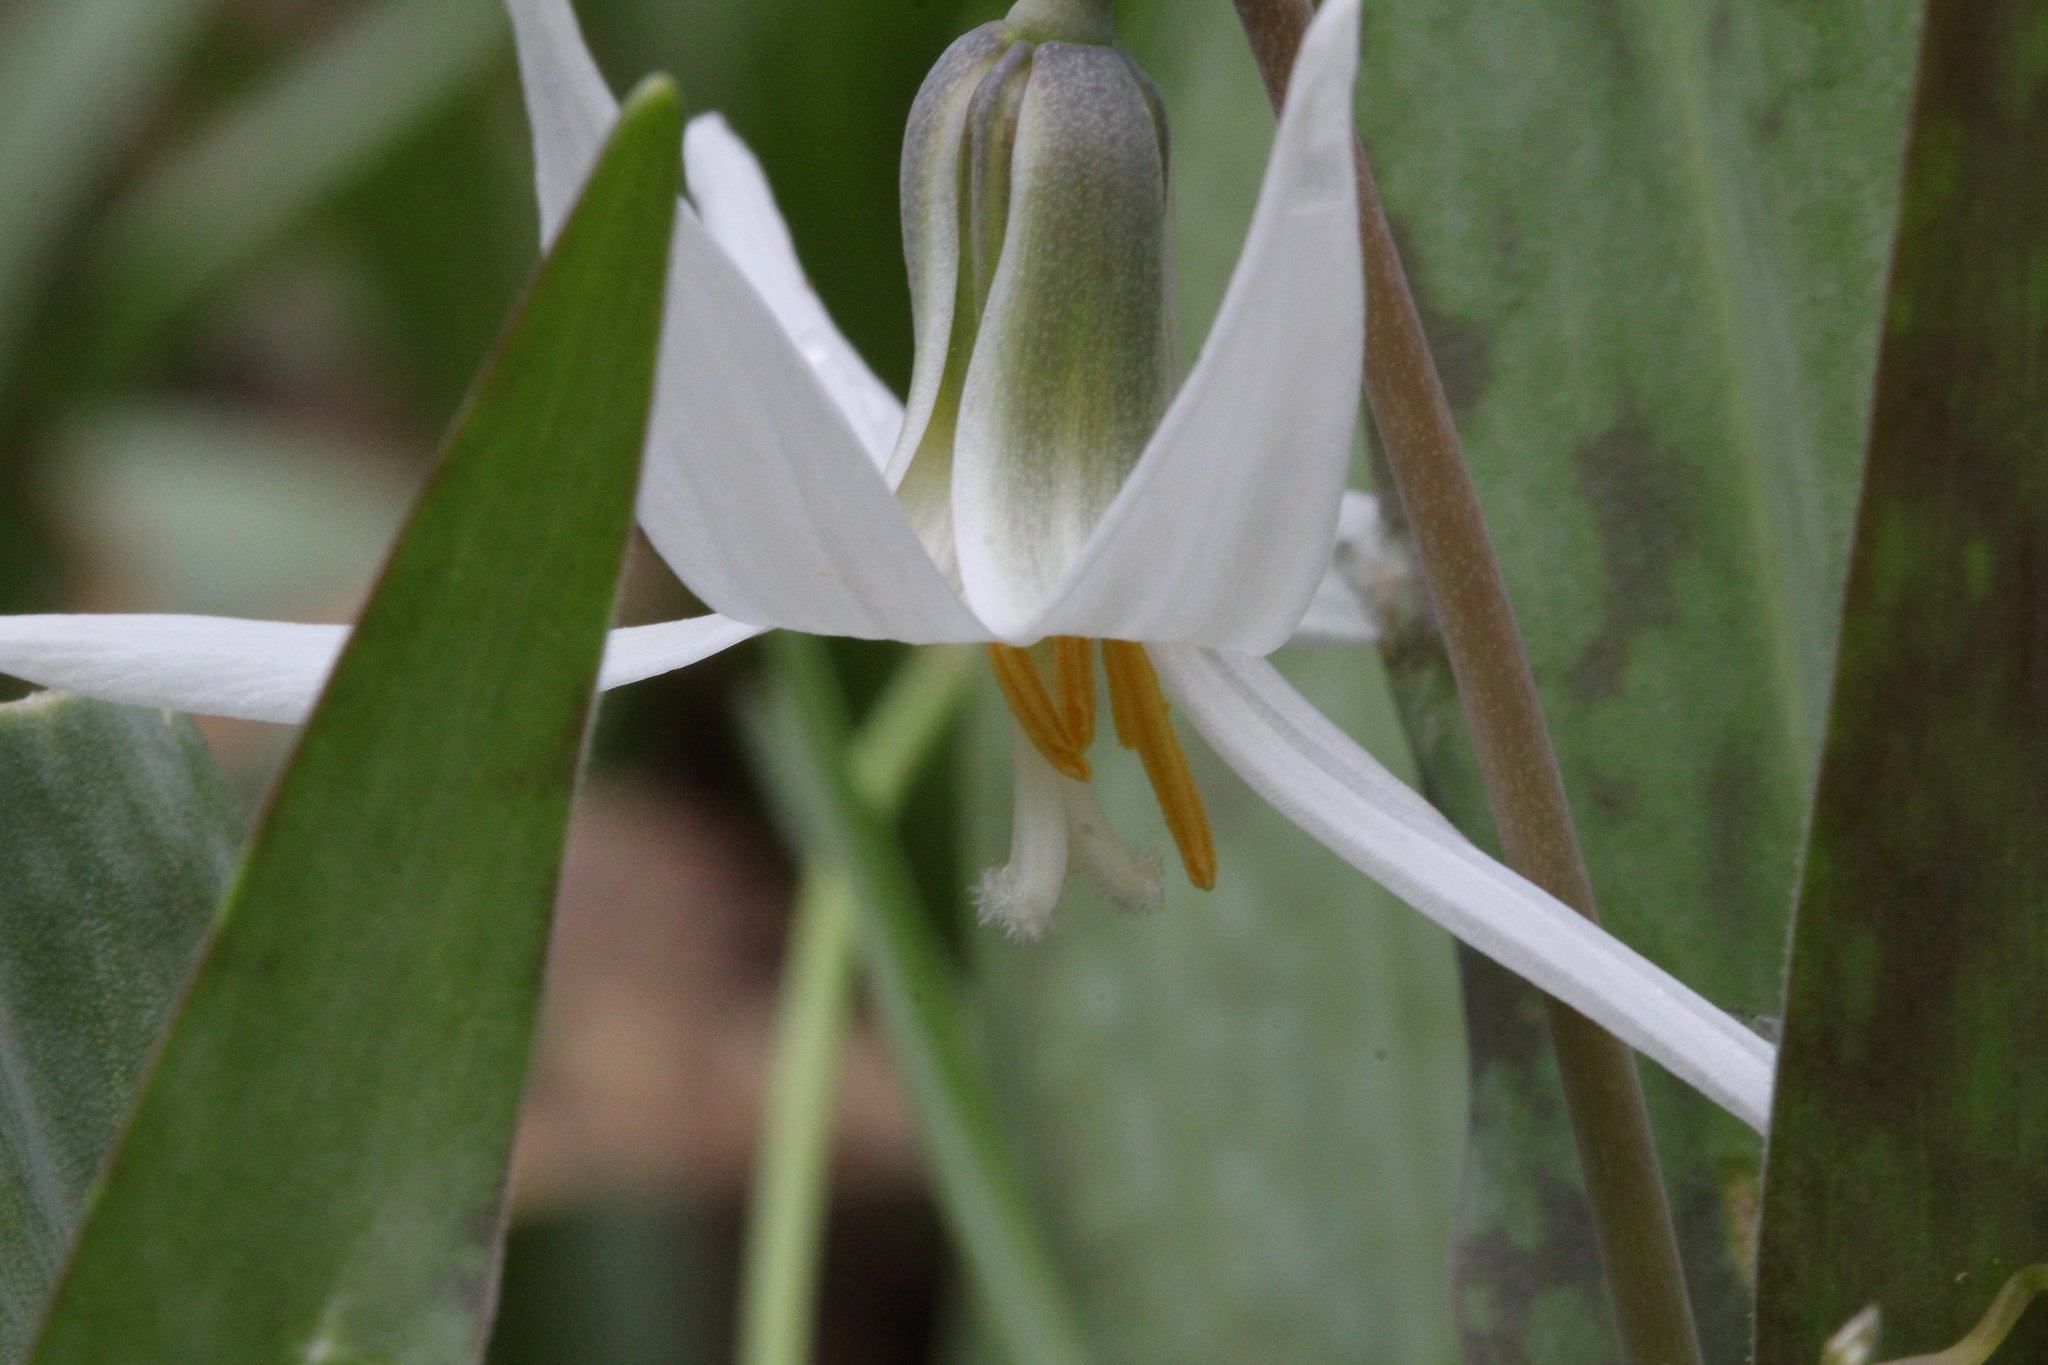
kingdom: Plantae
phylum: Tracheophyta
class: Liliopsida
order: Liliales
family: Liliaceae
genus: Erythronium
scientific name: Erythronium albidum
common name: White trout-lily
